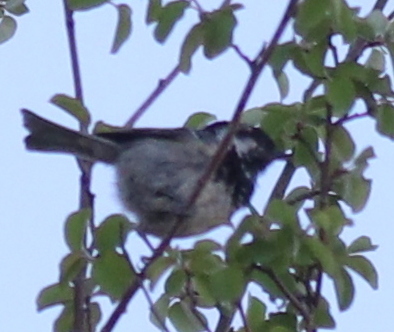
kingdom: Animalia
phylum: Chordata
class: Aves
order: Passeriformes
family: Paridae
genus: Periparus
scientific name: Periparus ater
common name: Coal tit
